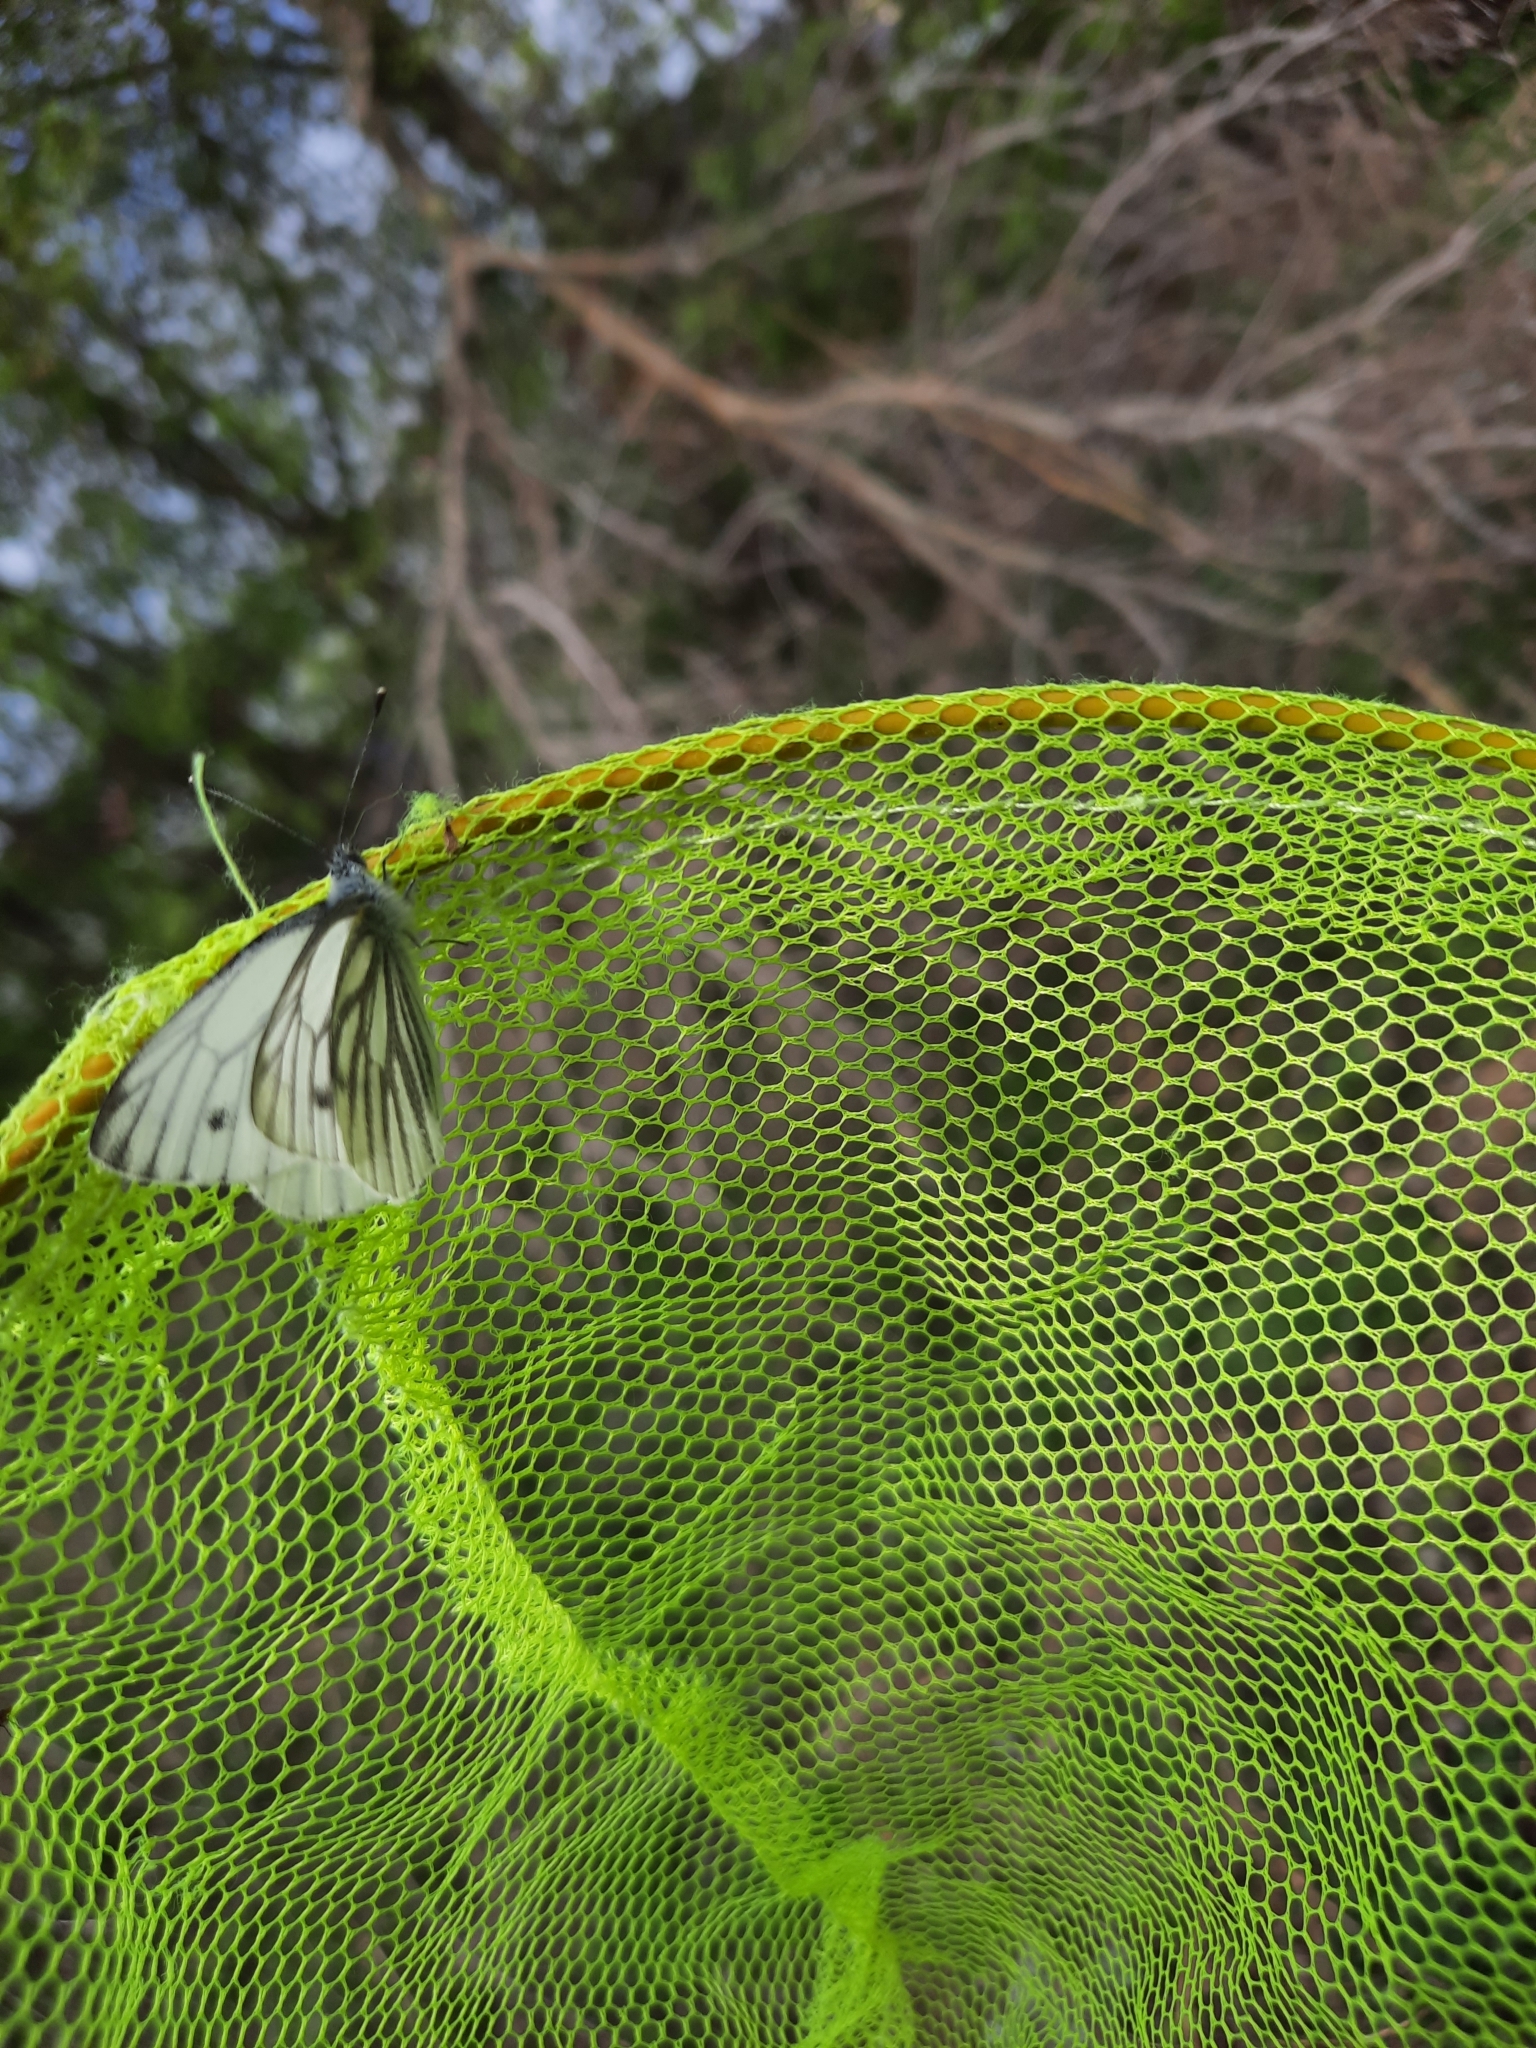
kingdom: Animalia
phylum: Arthropoda
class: Insecta
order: Lepidoptera
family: Pieridae
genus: Pieris
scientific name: Pieris napi
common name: Green-veined white
